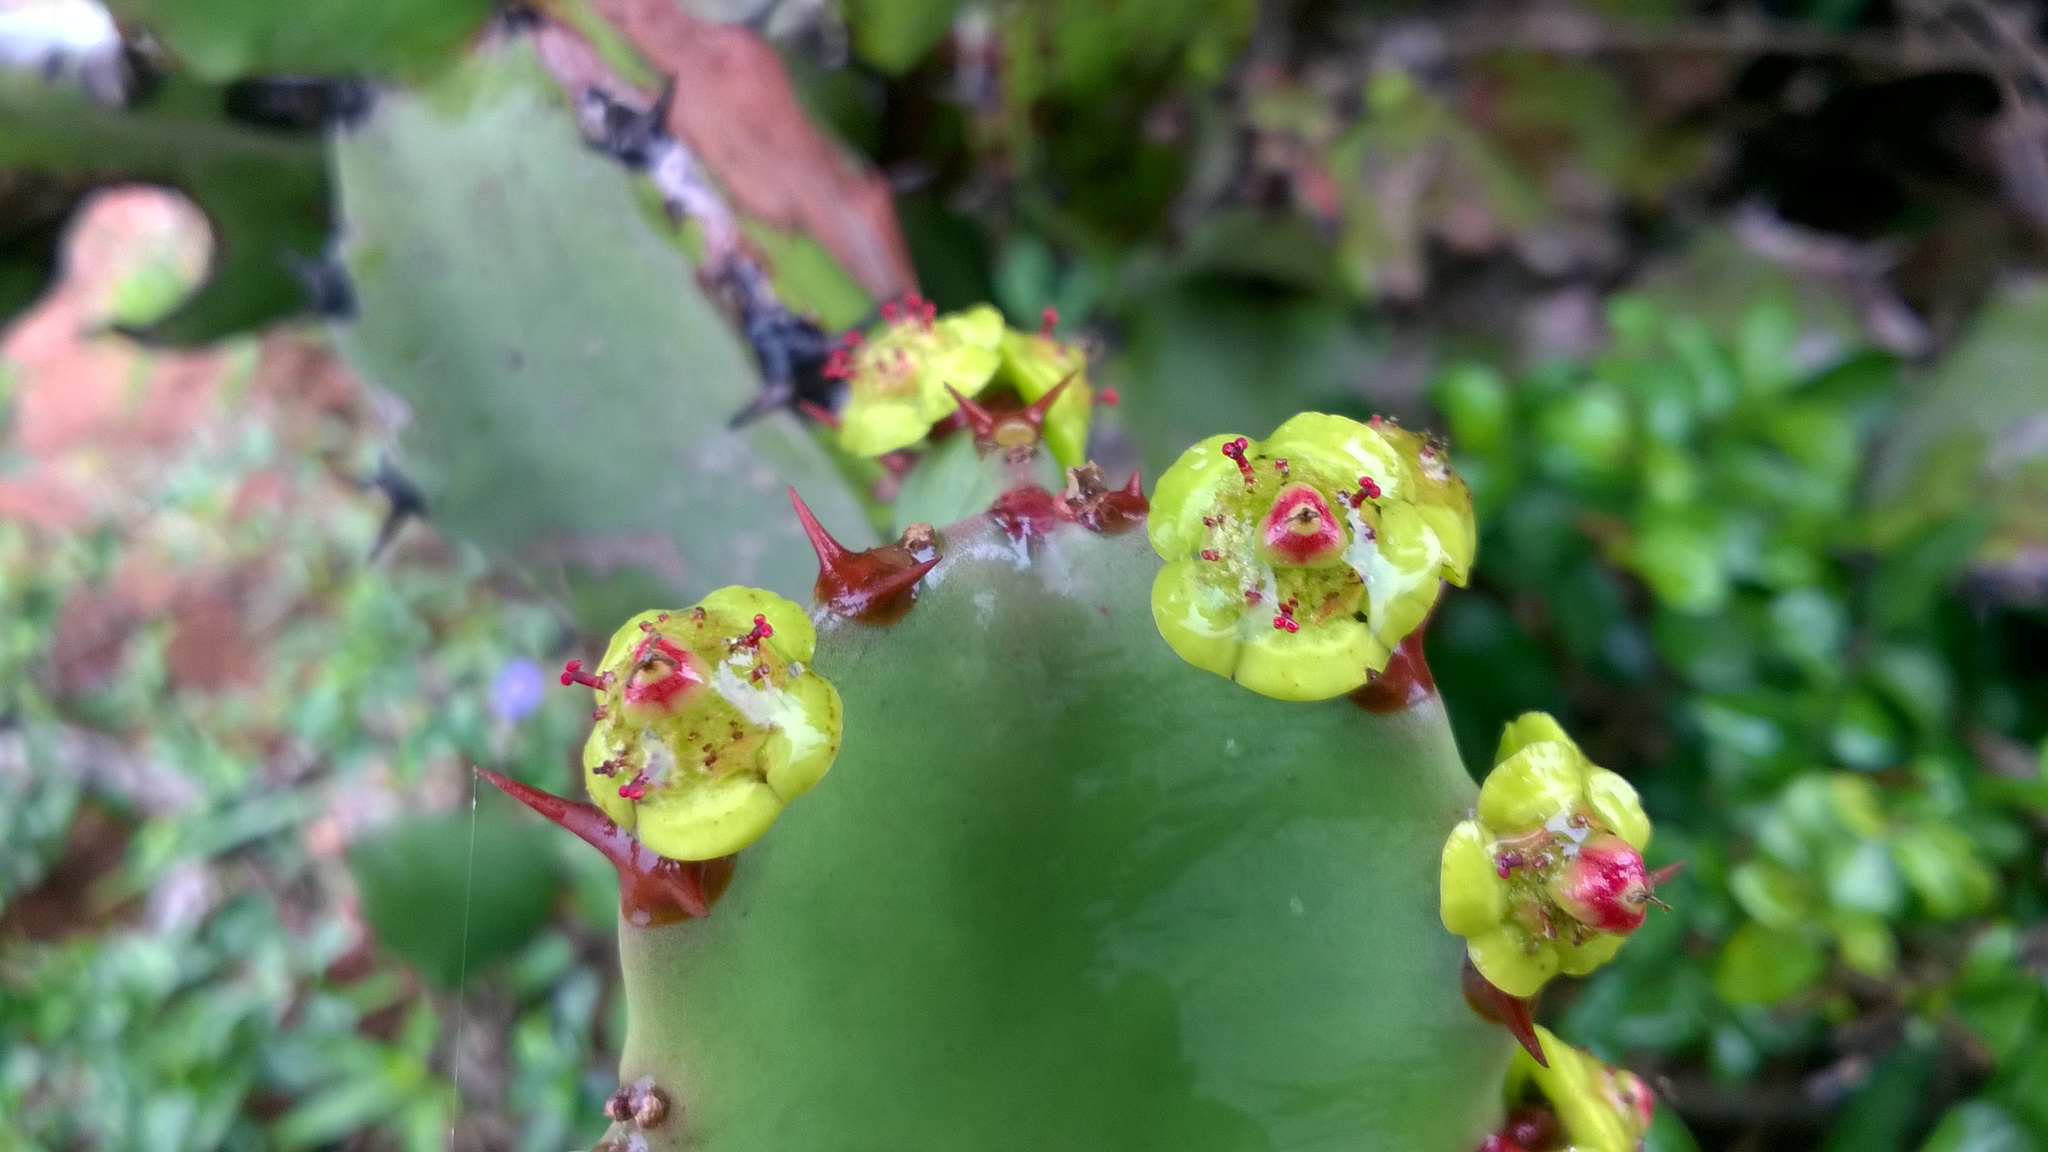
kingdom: Plantae
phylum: Tracheophyta
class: Magnoliopsida
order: Malpighiales
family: Euphorbiaceae
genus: Euphorbia
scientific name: Euphorbia antiquorum
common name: Malayan spurge tree
